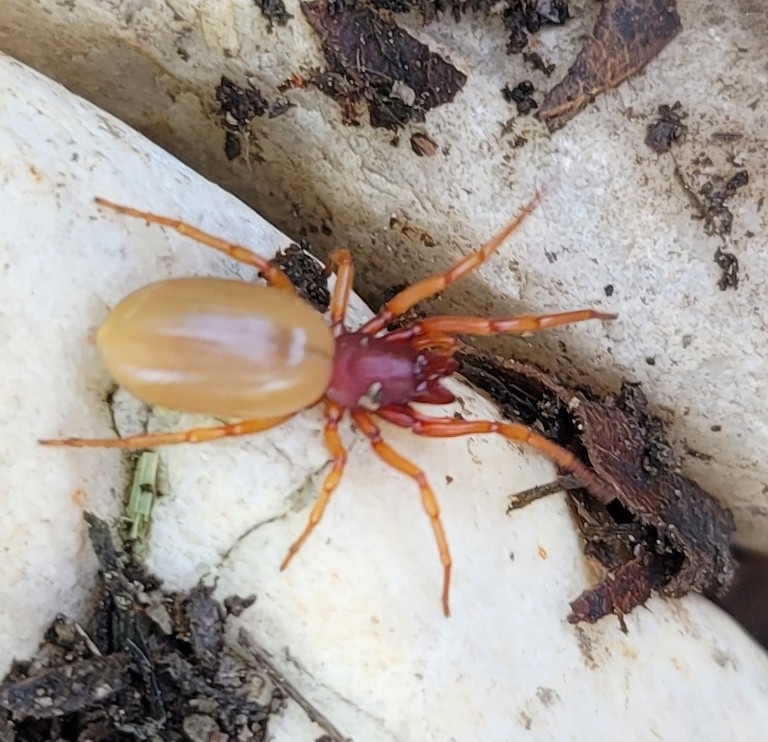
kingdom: Animalia
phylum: Arthropoda
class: Arachnida
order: Araneae
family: Dysderidae
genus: Dysdera
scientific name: Dysdera crocata
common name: Woodlouse spider
